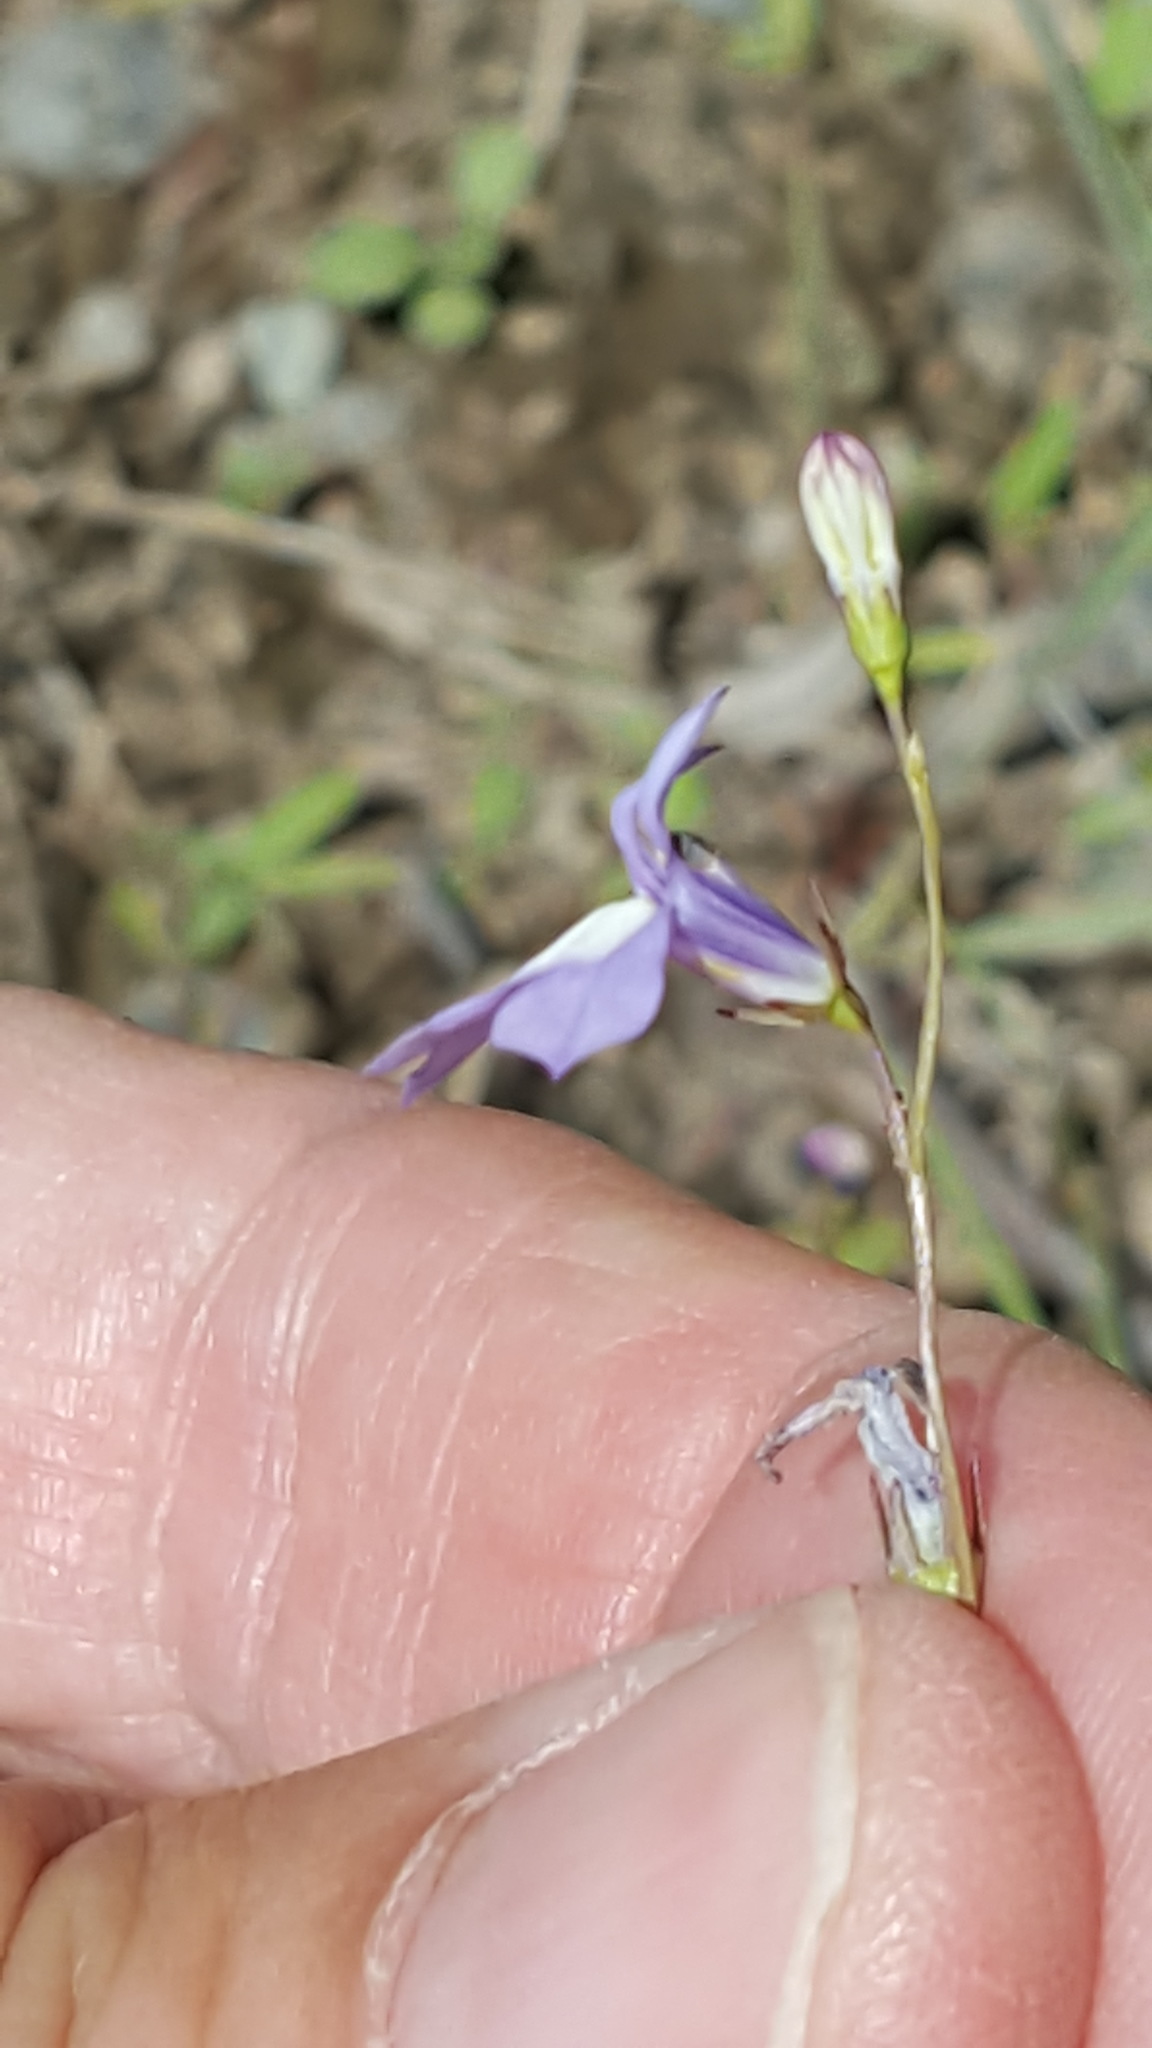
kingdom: Plantae
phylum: Tracheophyta
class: Magnoliopsida
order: Asterales
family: Campanulaceae
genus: Lobelia
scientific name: Lobelia kalmii
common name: Kalm's lobelia
